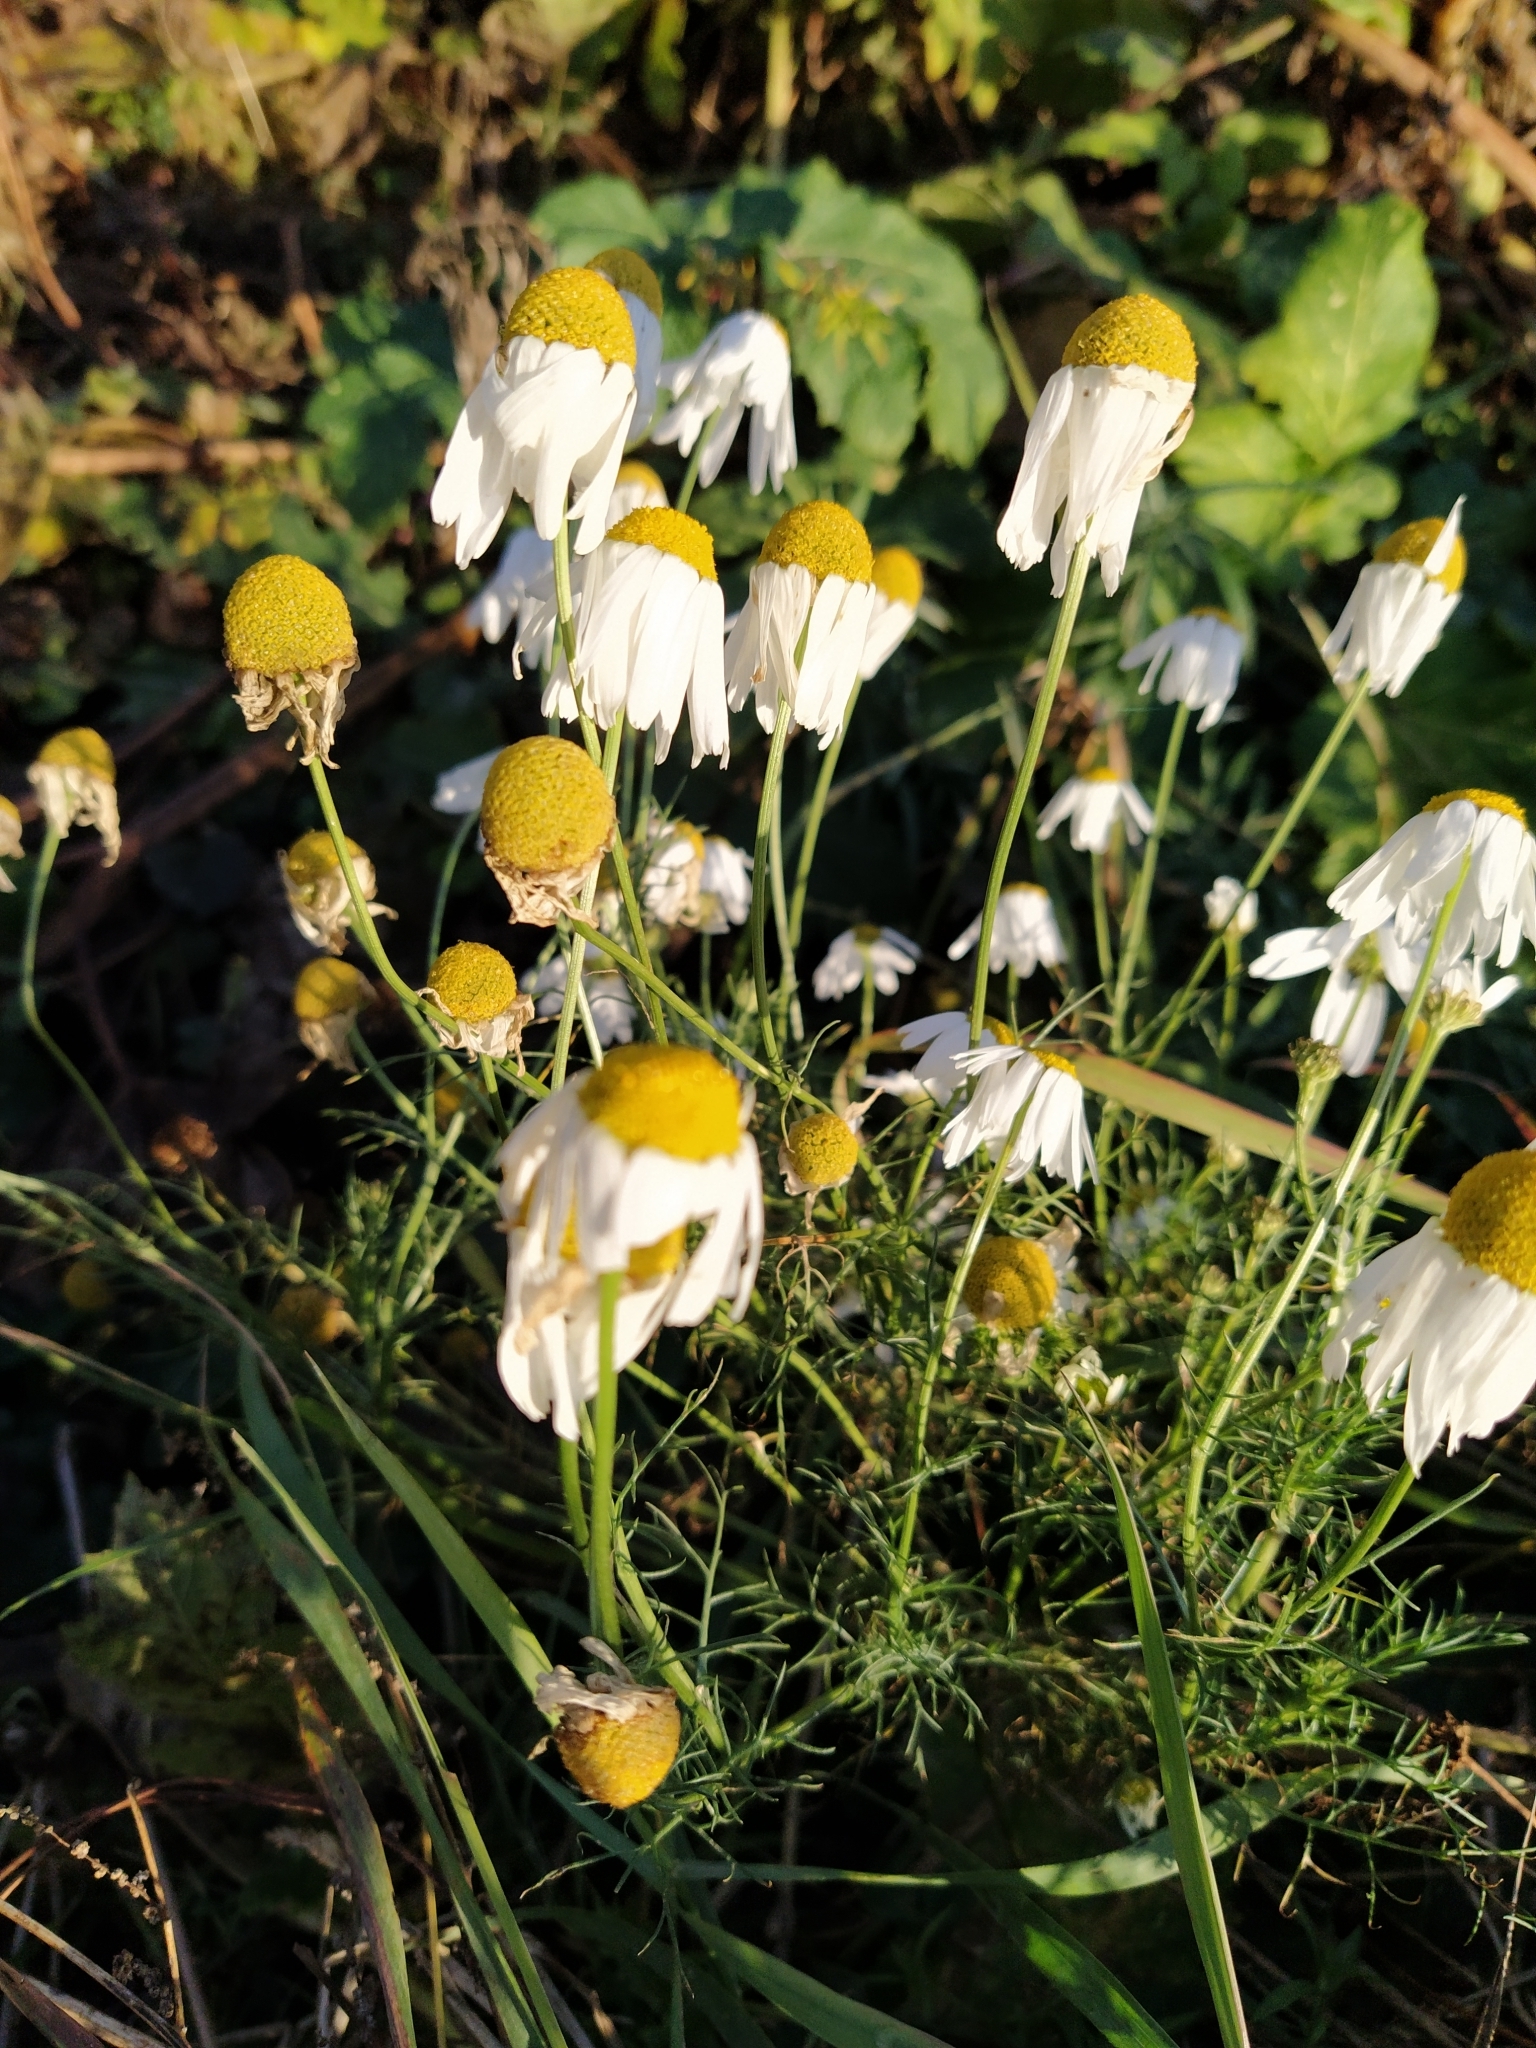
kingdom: Plantae
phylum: Tracheophyta
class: Magnoliopsida
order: Asterales
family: Asteraceae
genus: Tripleurospermum
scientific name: Tripleurospermum inodorum
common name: Scentless mayweed
